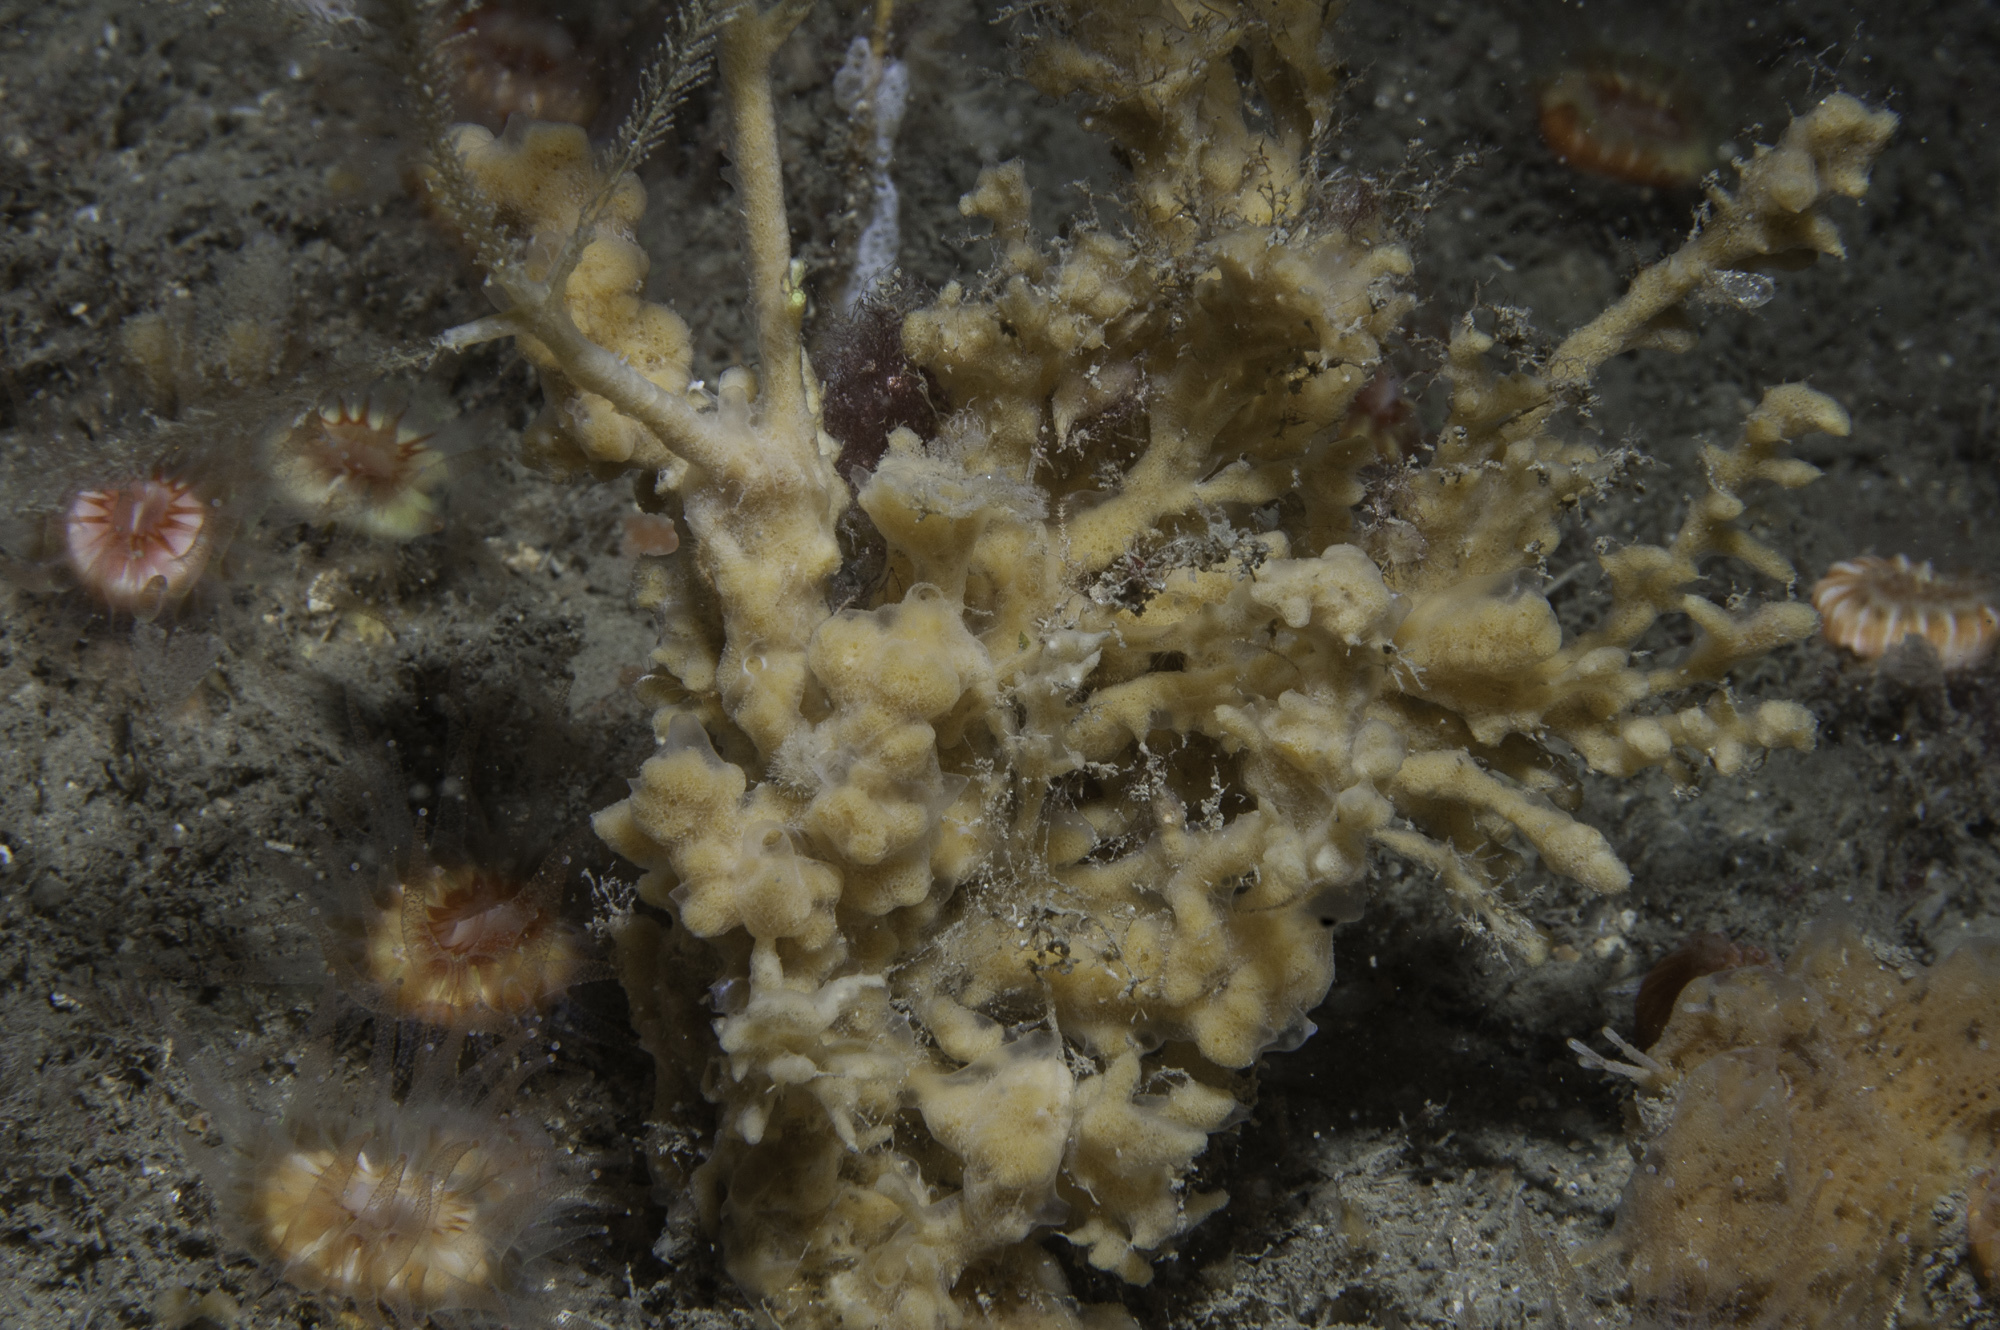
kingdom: Animalia
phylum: Porifera
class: Demospongiae
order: Poecilosclerida
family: Acarnidae
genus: Iophon
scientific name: Iophon hyndmani
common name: Hyndman's horny sponge
